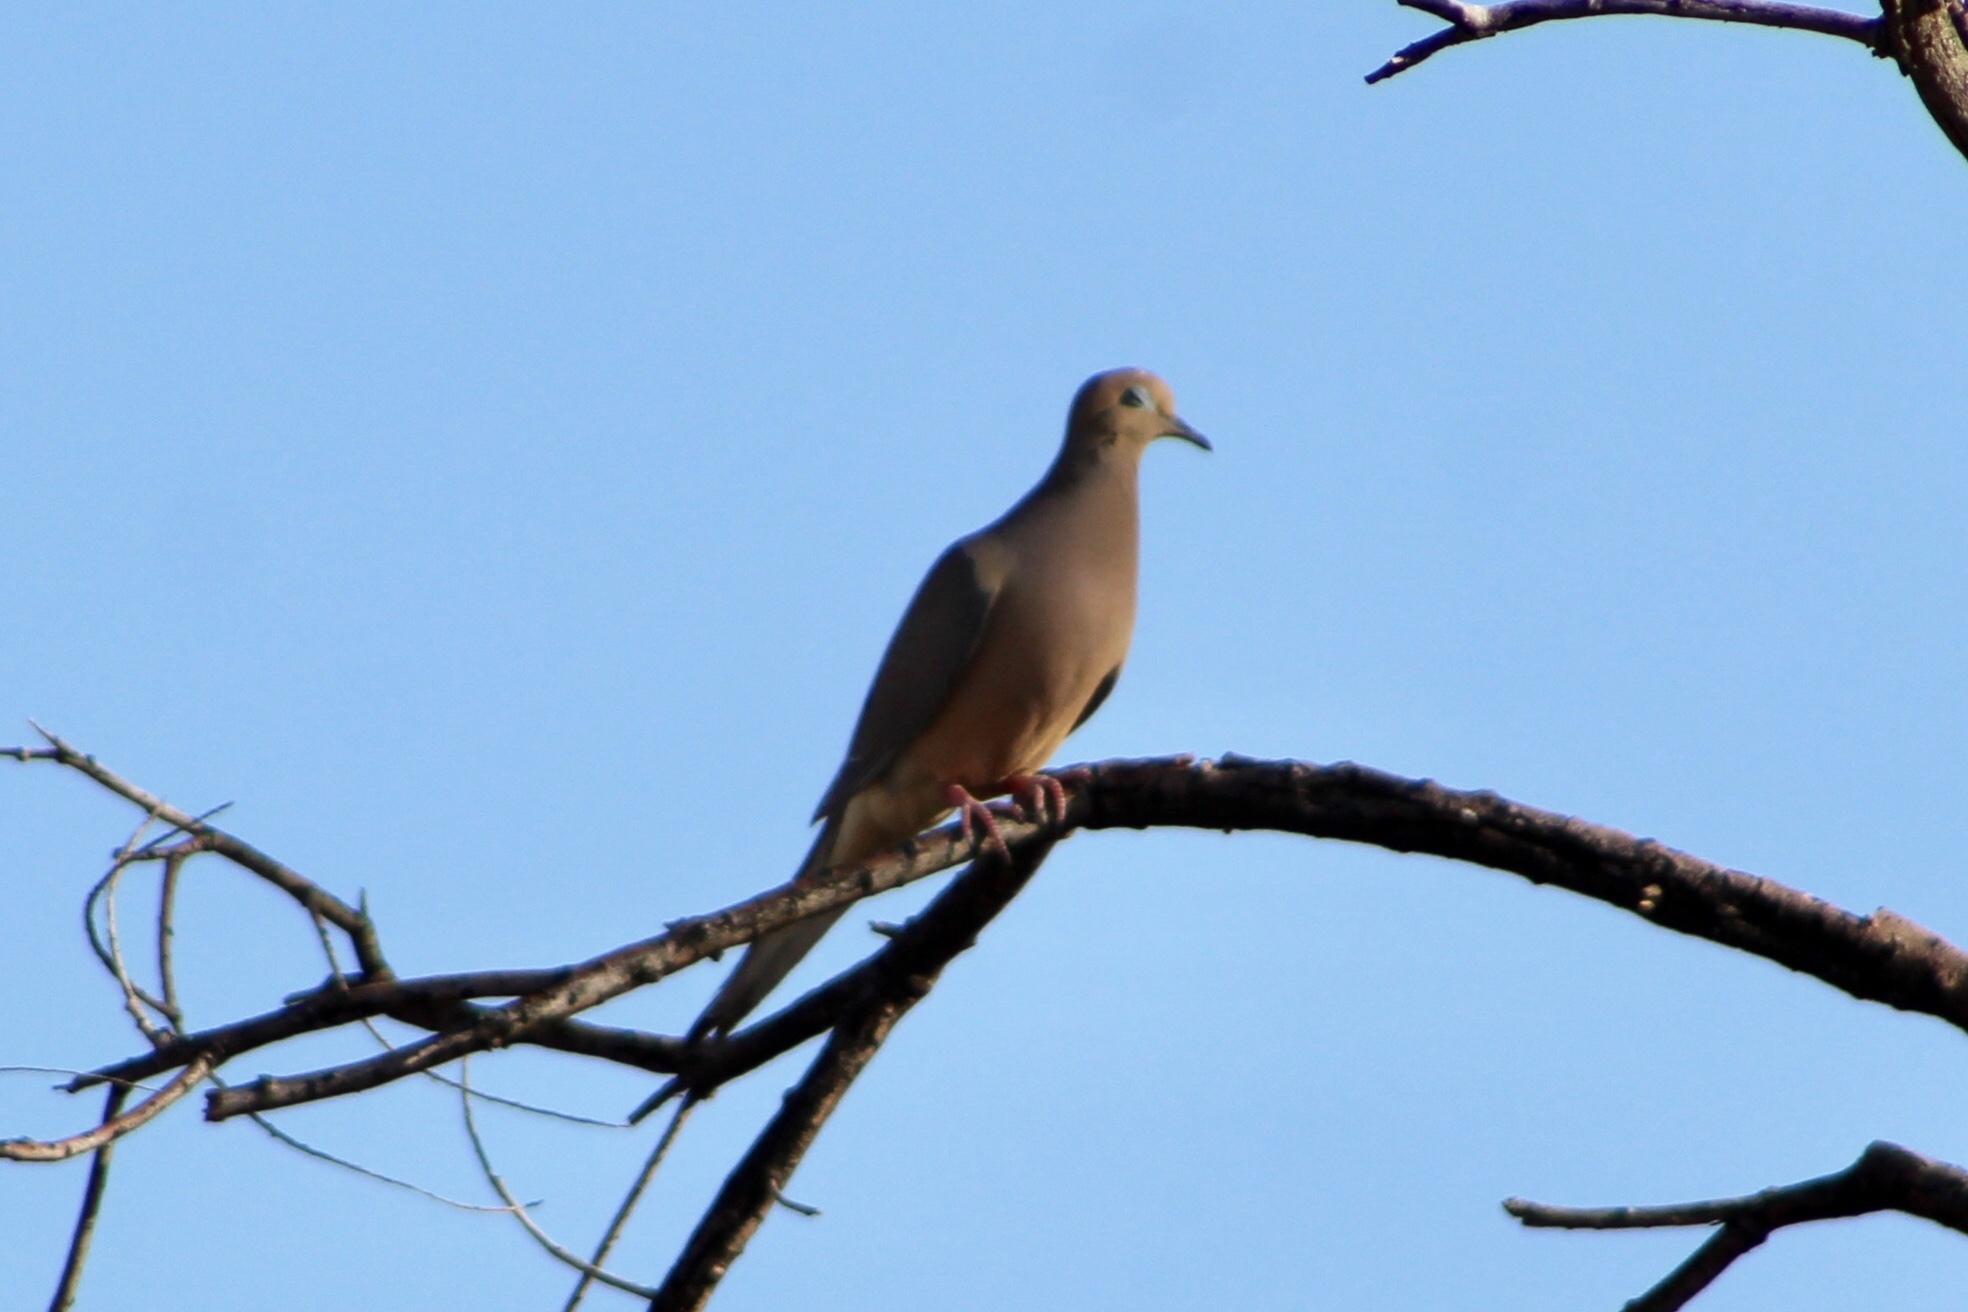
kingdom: Animalia
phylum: Chordata
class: Aves
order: Columbiformes
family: Columbidae
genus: Zenaida
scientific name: Zenaida macroura
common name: Mourning dove
